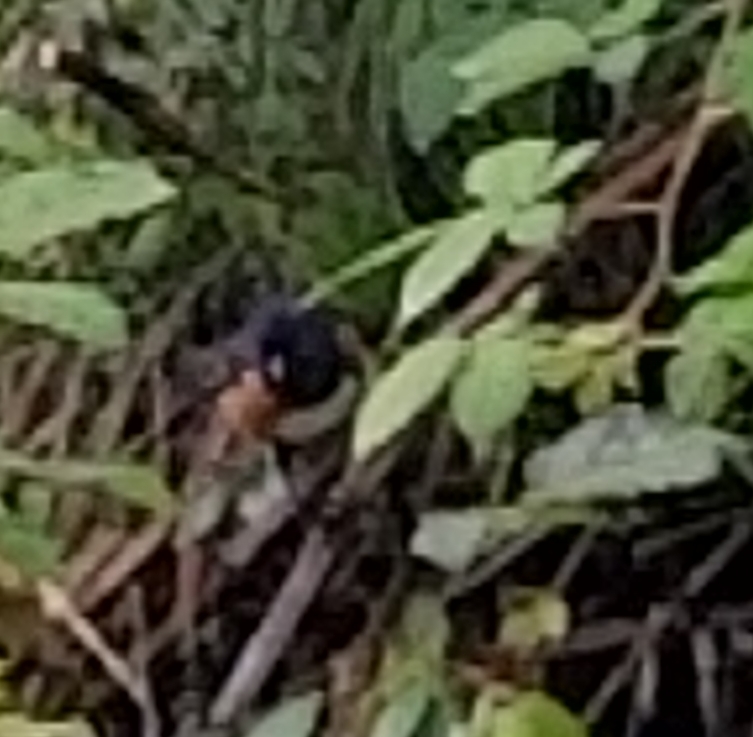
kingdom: Animalia
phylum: Chordata
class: Aves
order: Passeriformes
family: Passerellidae
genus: Pipilo
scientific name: Pipilo maculatus
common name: Spotted towhee
